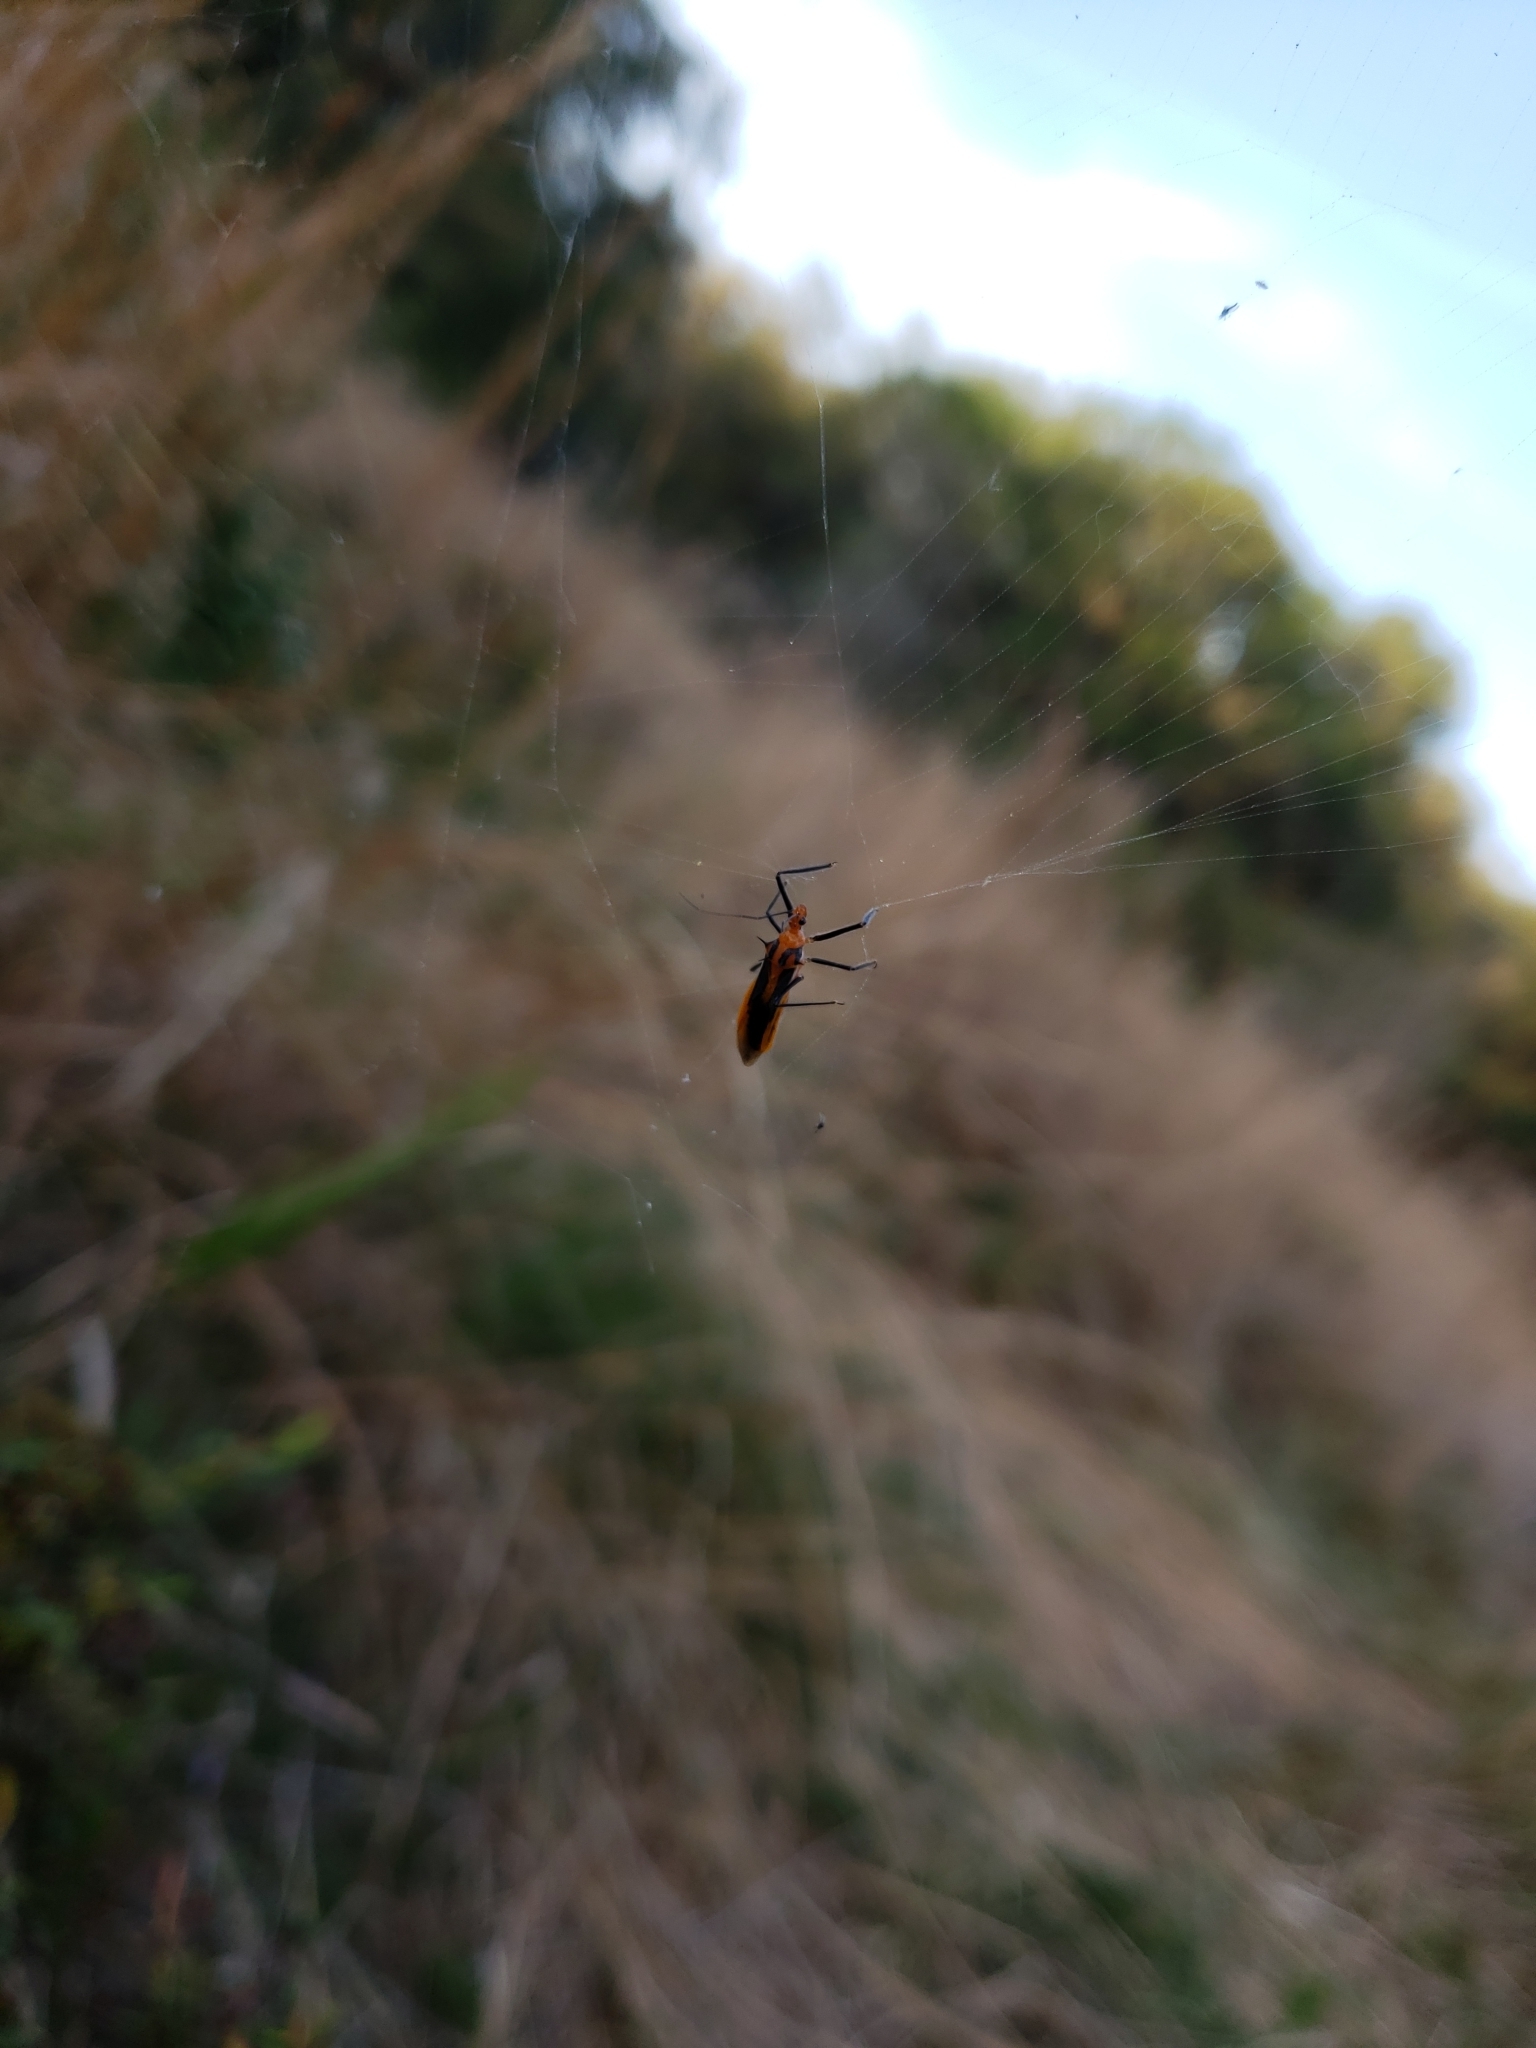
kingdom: Animalia
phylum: Arthropoda
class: Insecta
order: Hemiptera
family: Reduviidae
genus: Repipta
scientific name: Repipta taurus
